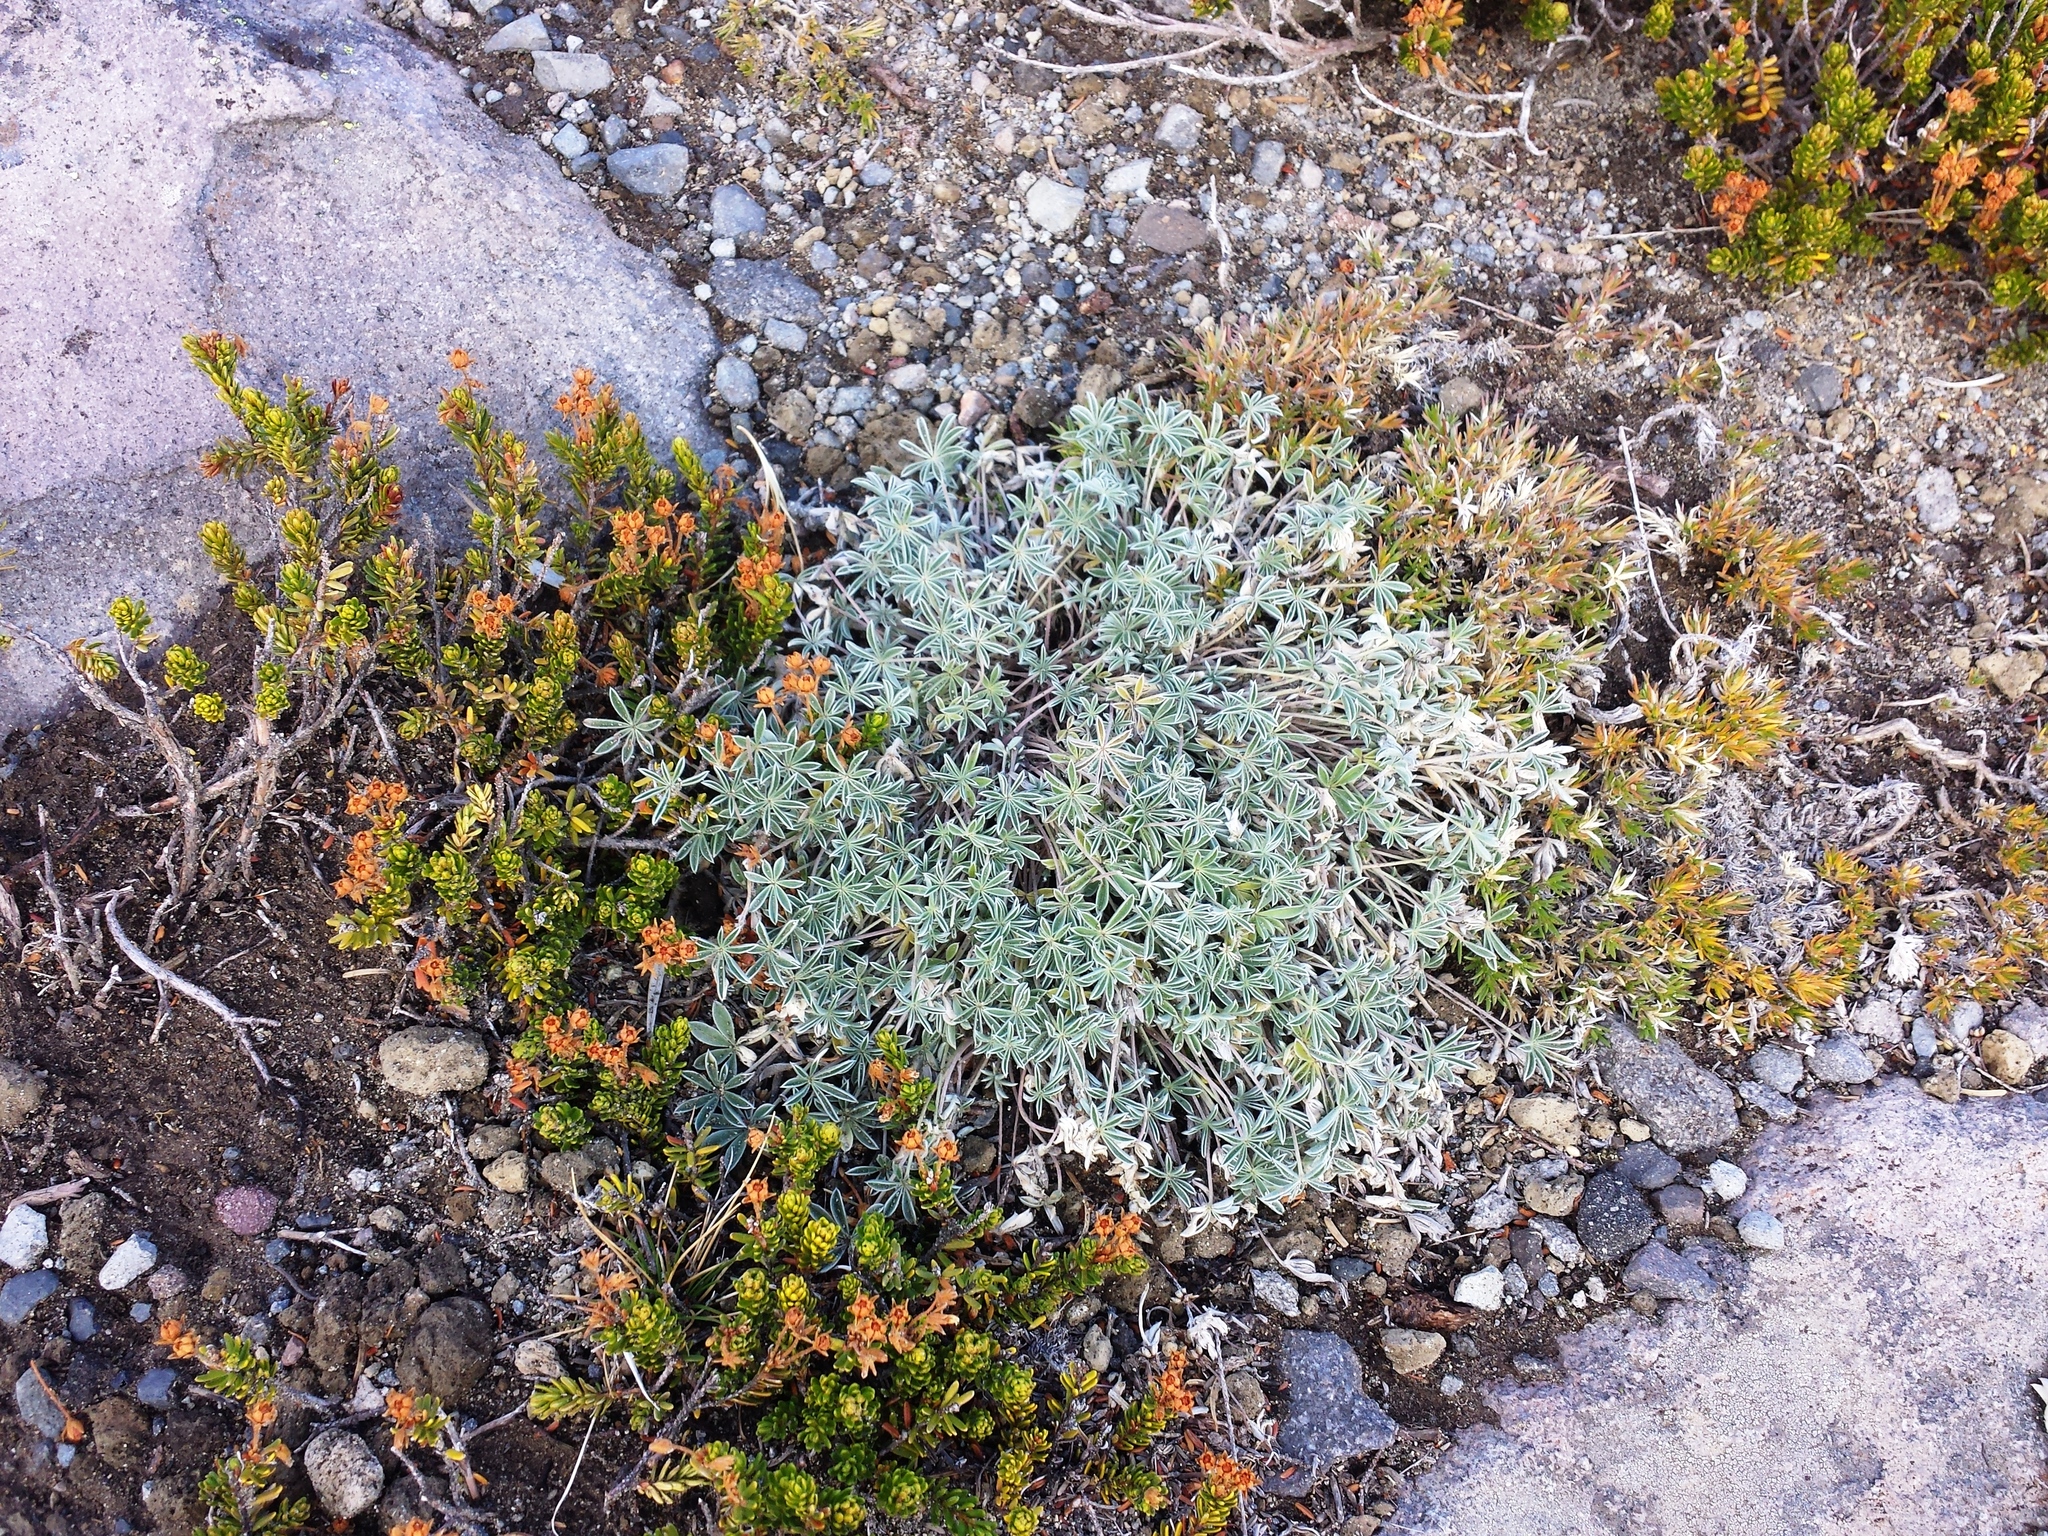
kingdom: Plantae
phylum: Tracheophyta
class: Magnoliopsida
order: Fabales
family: Fabaceae
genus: Lupinus
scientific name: Lupinus sellulus
